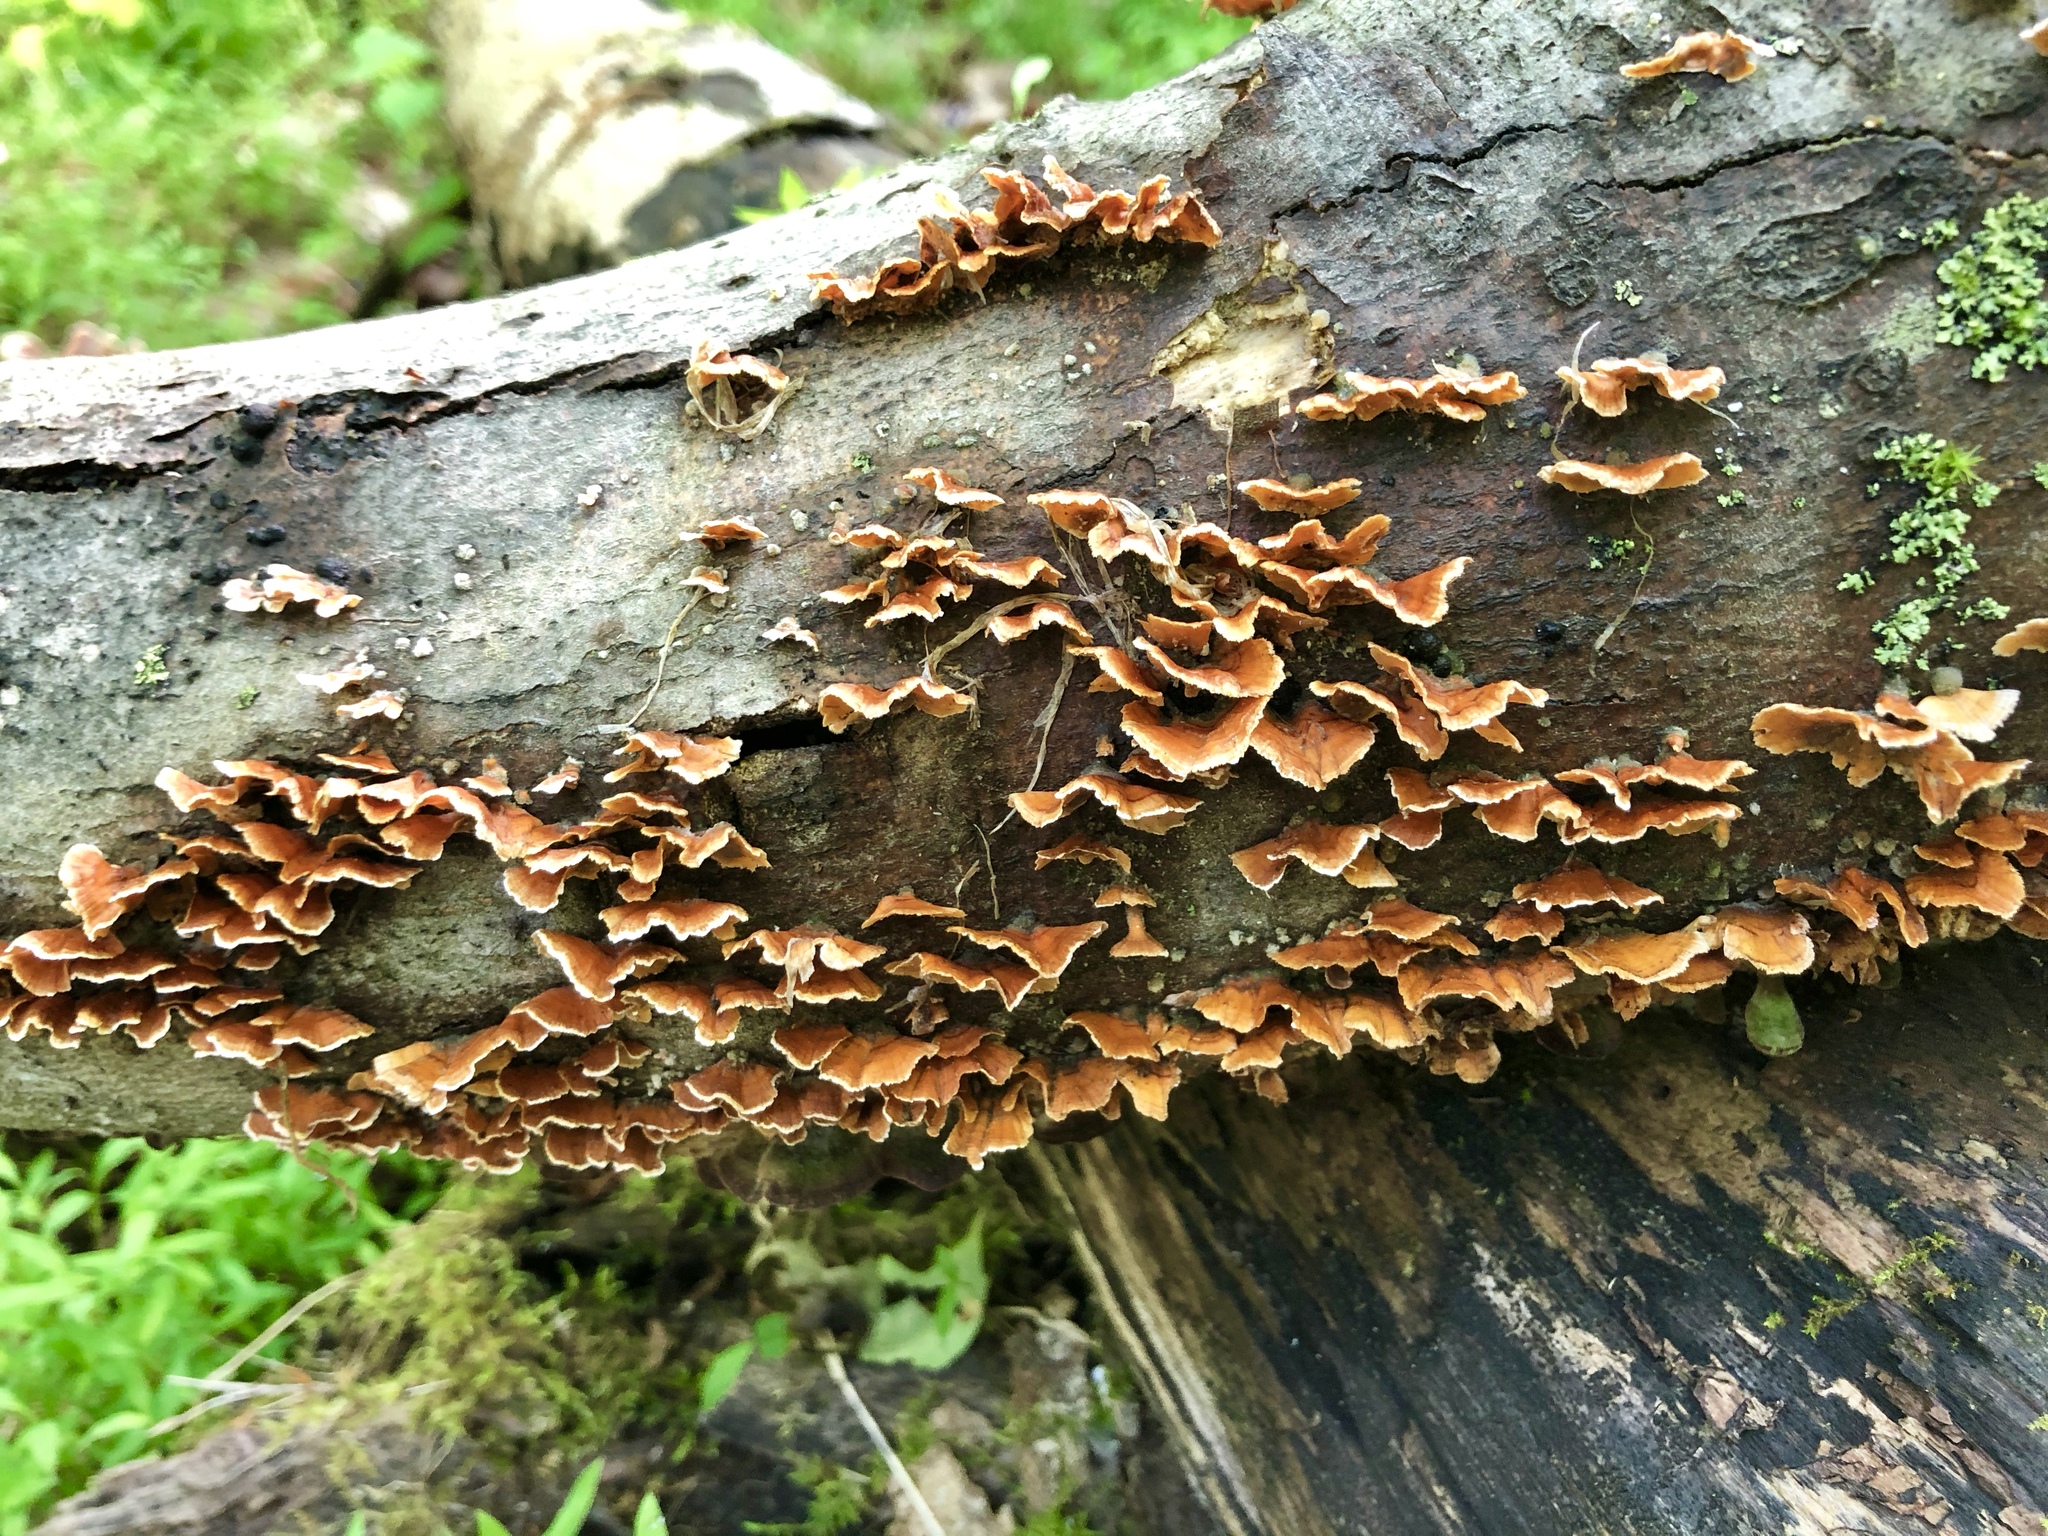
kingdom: Fungi
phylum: Basidiomycota
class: Agaricomycetes
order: Russulales
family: Stereaceae
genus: Stereum
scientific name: Stereum complicatum
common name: Crowded parchment
